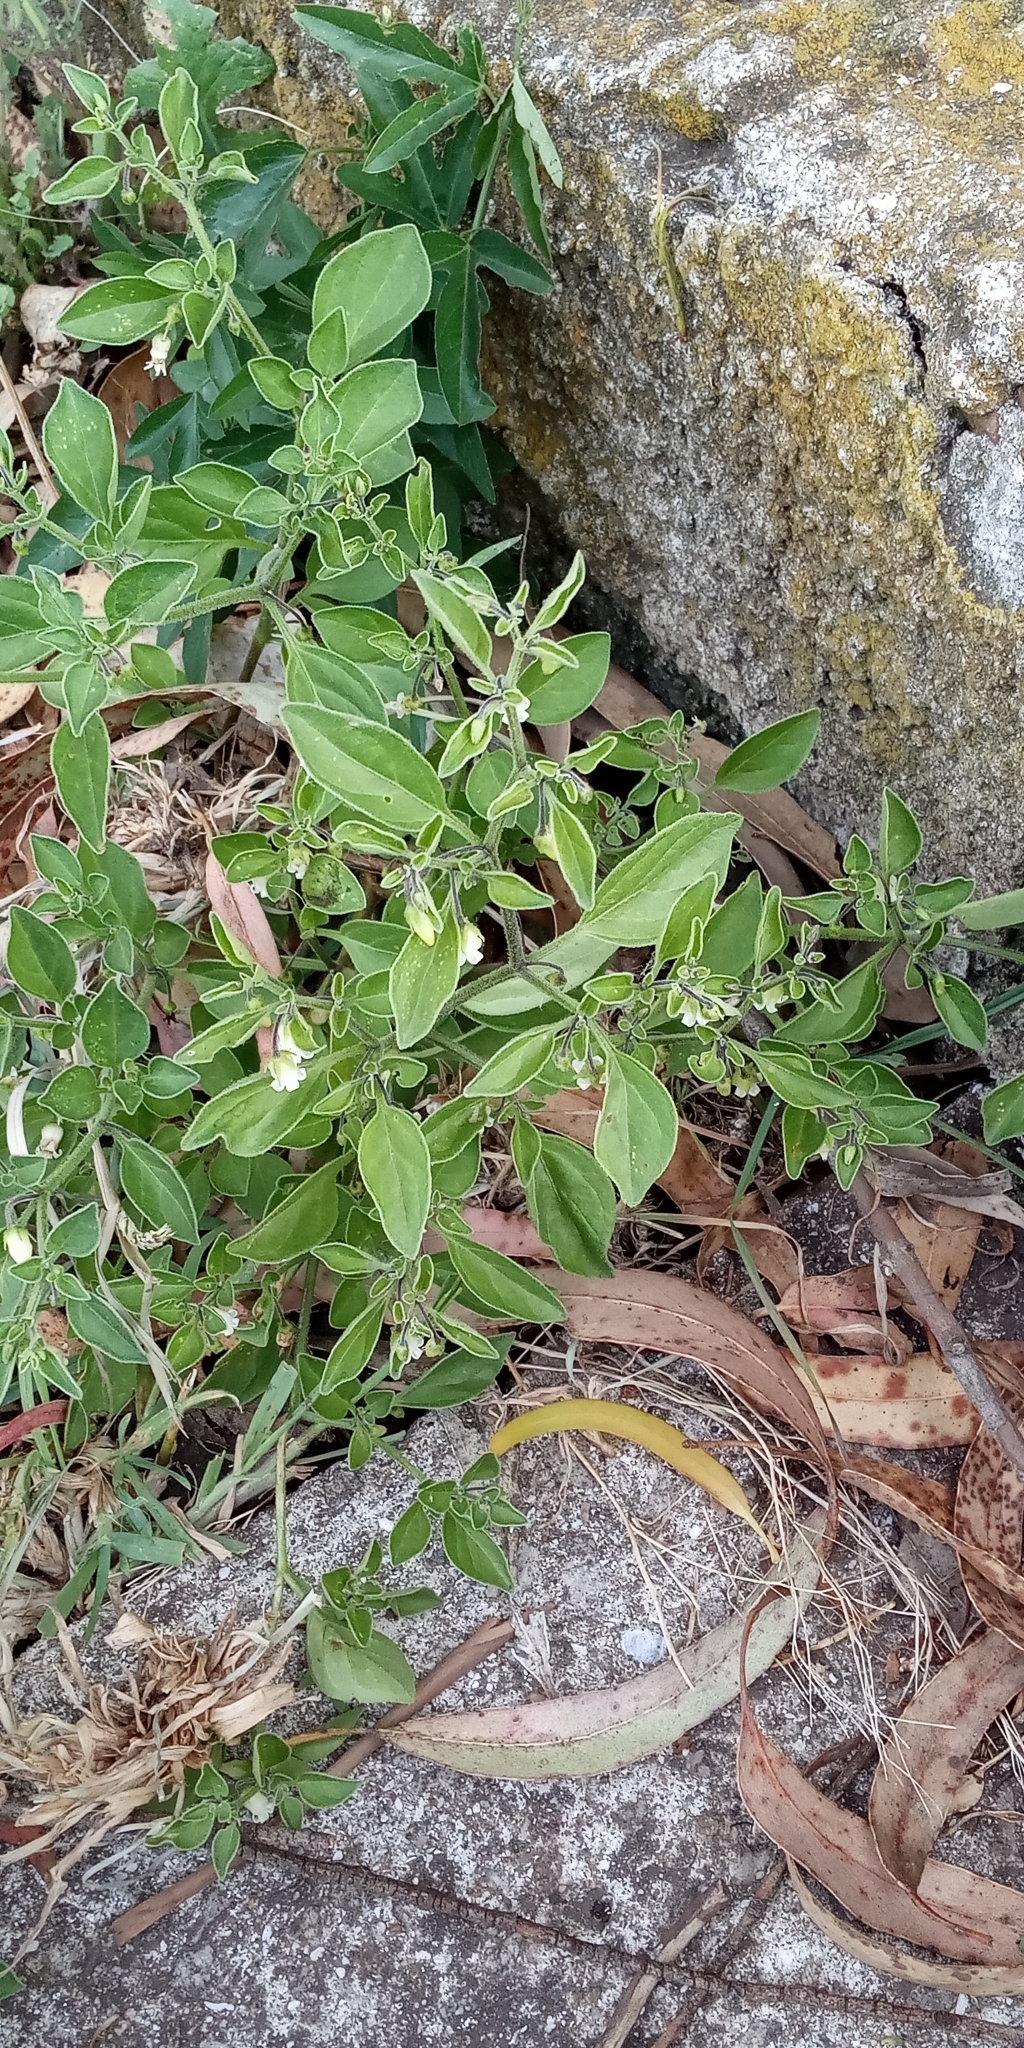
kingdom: Plantae
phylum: Tracheophyta
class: Magnoliopsida
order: Solanales
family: Solanaceae
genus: Salpichroa
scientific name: Salpichroa origanifolia
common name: Lily-of-the-valley-vine
